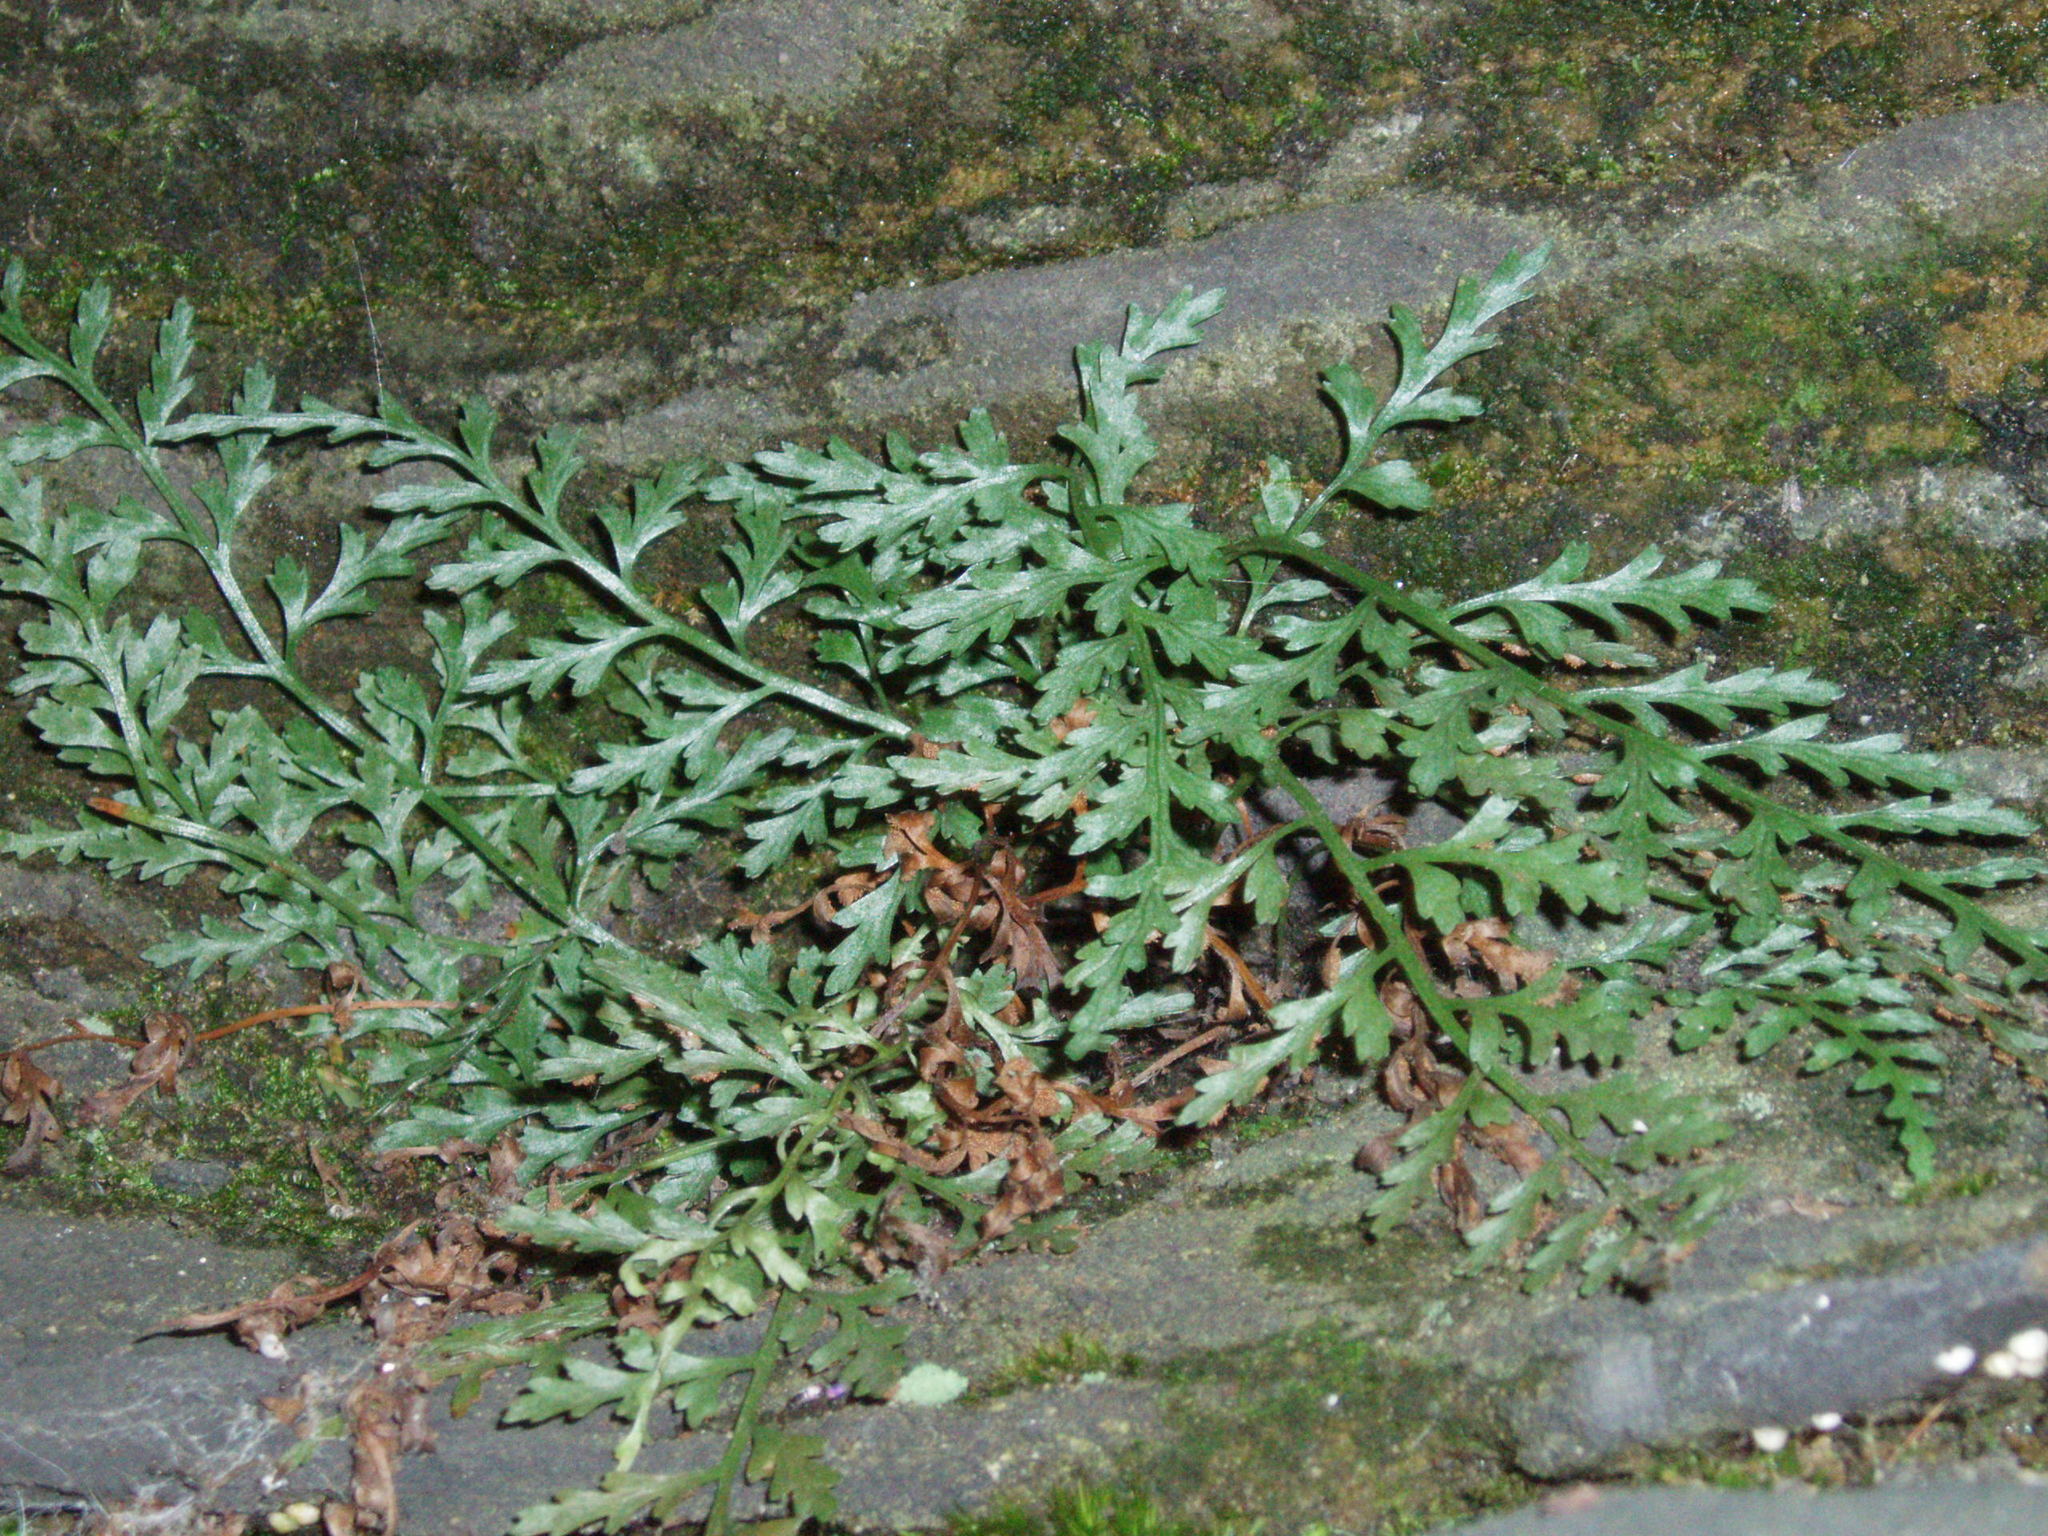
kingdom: Plantae
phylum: Tracheophyta
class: Polypodiopsida
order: Polypodiales
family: Aspleniaceae
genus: Asplenium
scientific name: Asplenium montanum
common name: Mountain spleenwort
